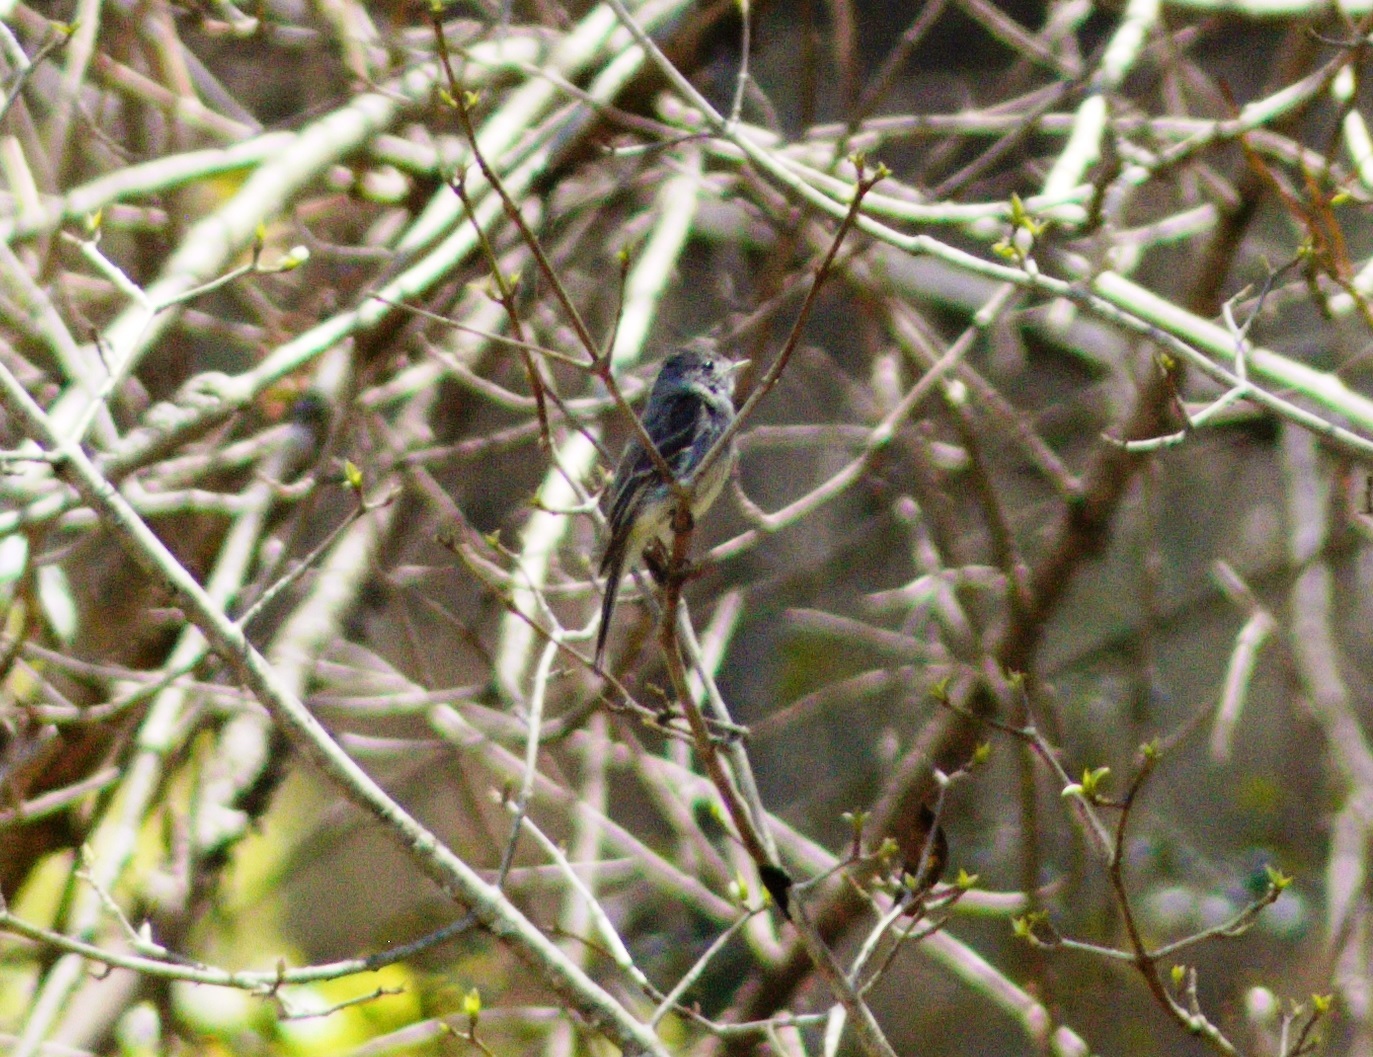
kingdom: Animalia
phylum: Chordata
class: Aves
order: Passeriformes
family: Tyrannidae
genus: Empidonax
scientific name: Empidonax
